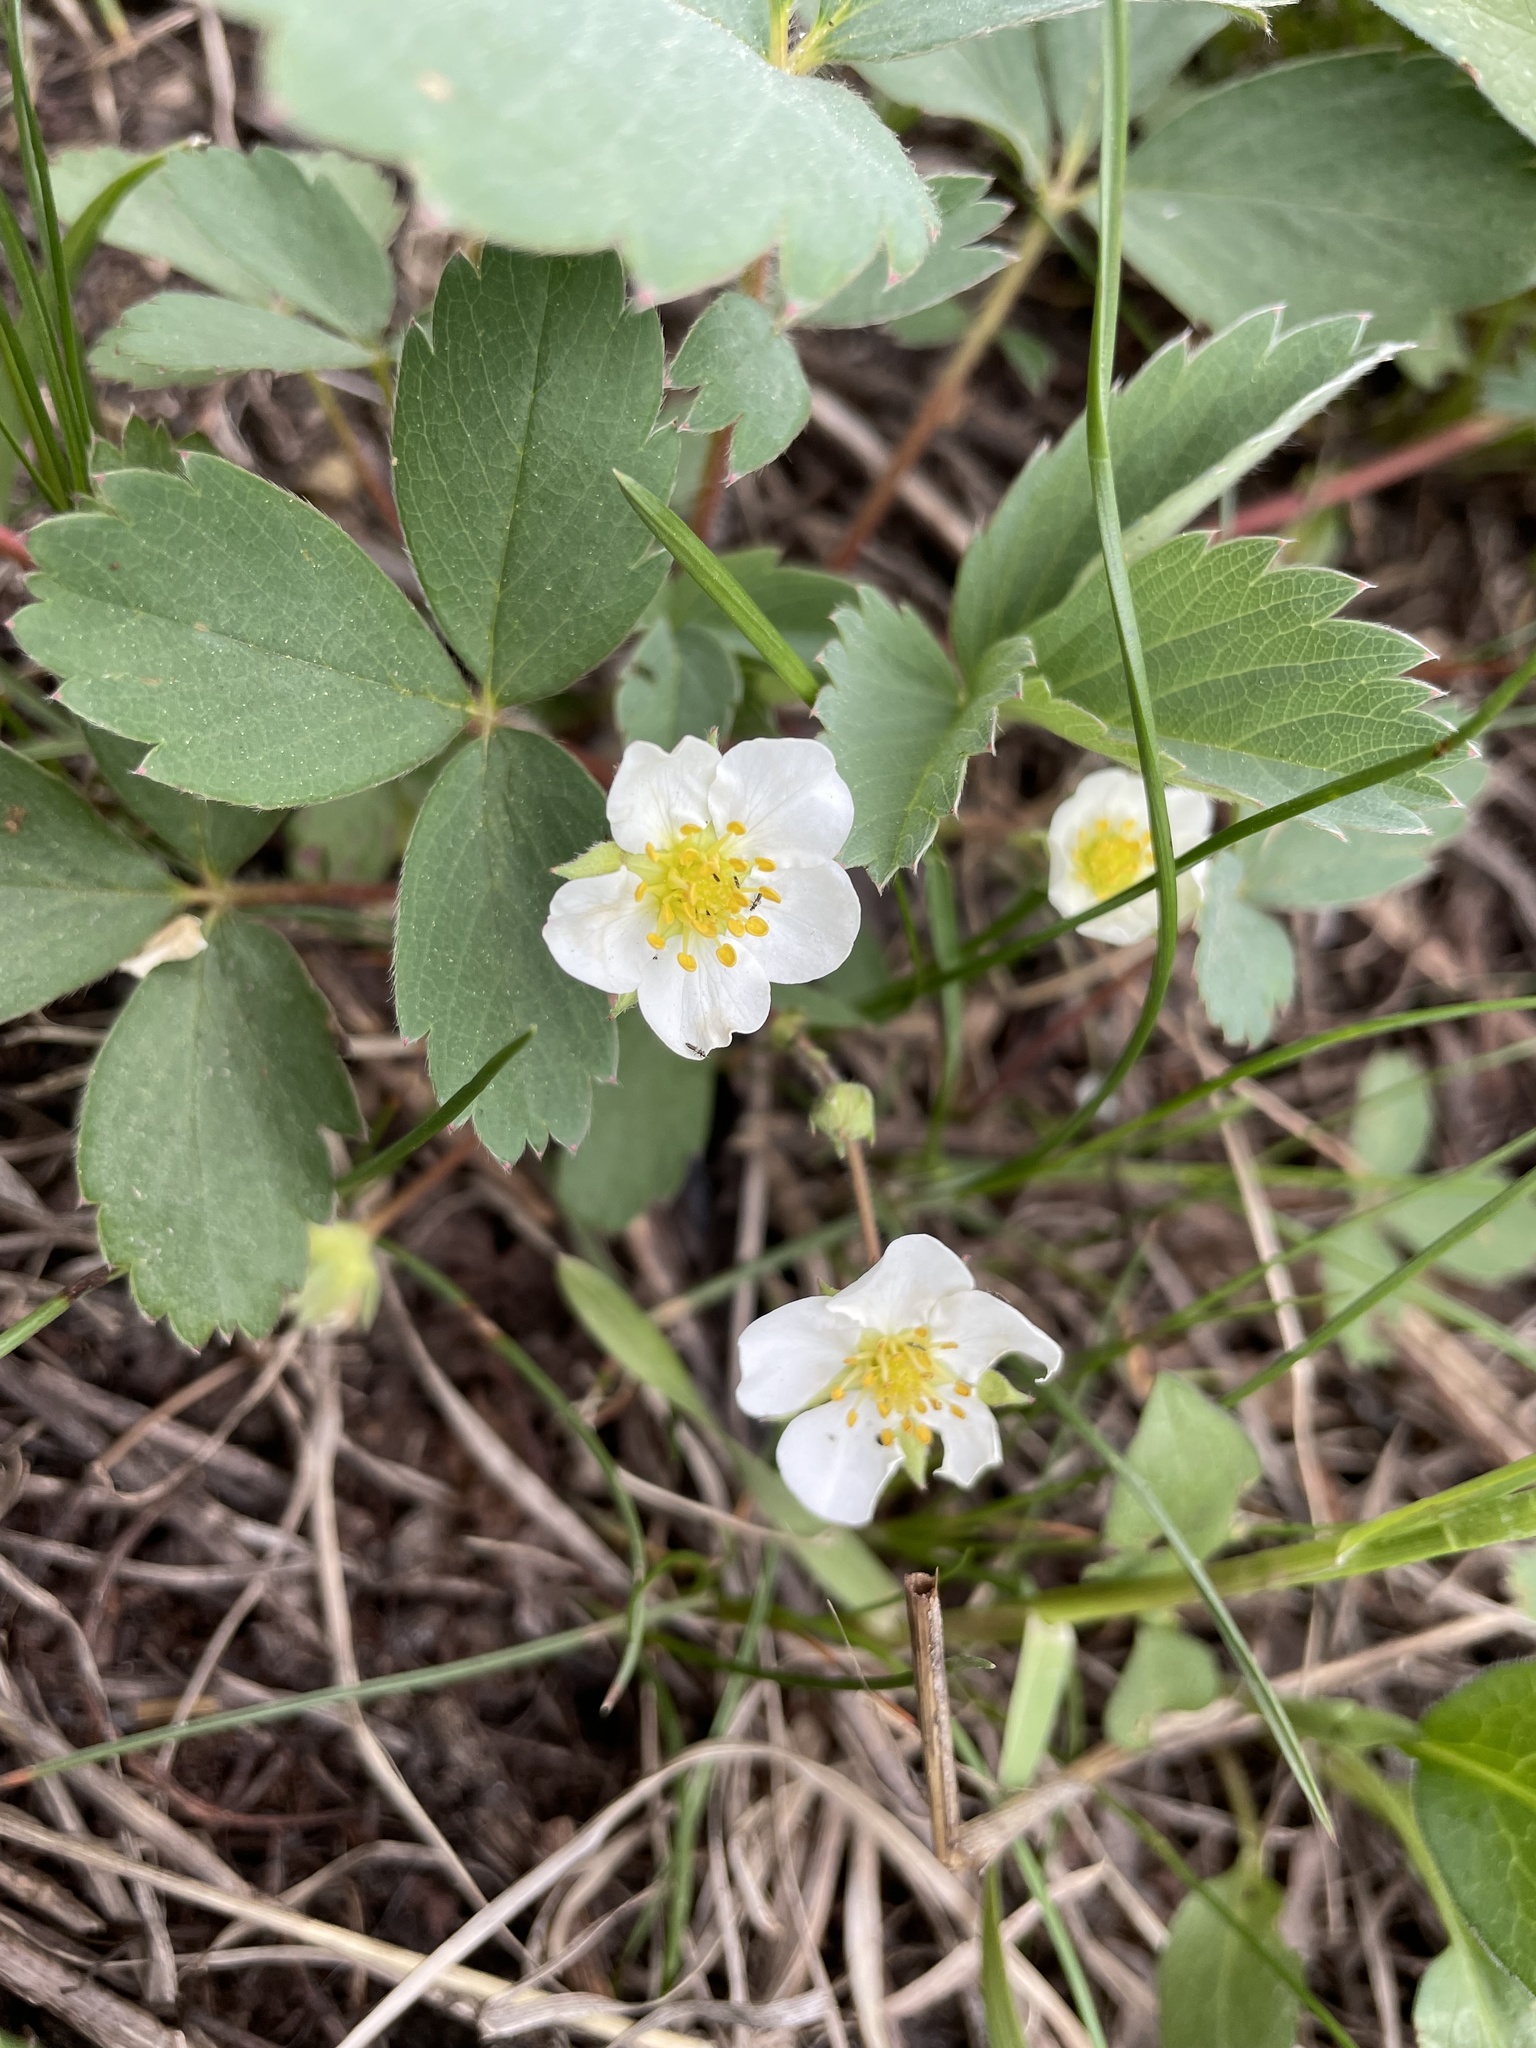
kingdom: Plantae
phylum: Tracheophyta
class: Magnoliopsida
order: Rosales
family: Rosaceae
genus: Fragaria
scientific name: Fragaria virginiana
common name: Thickleaved wild strawberry
